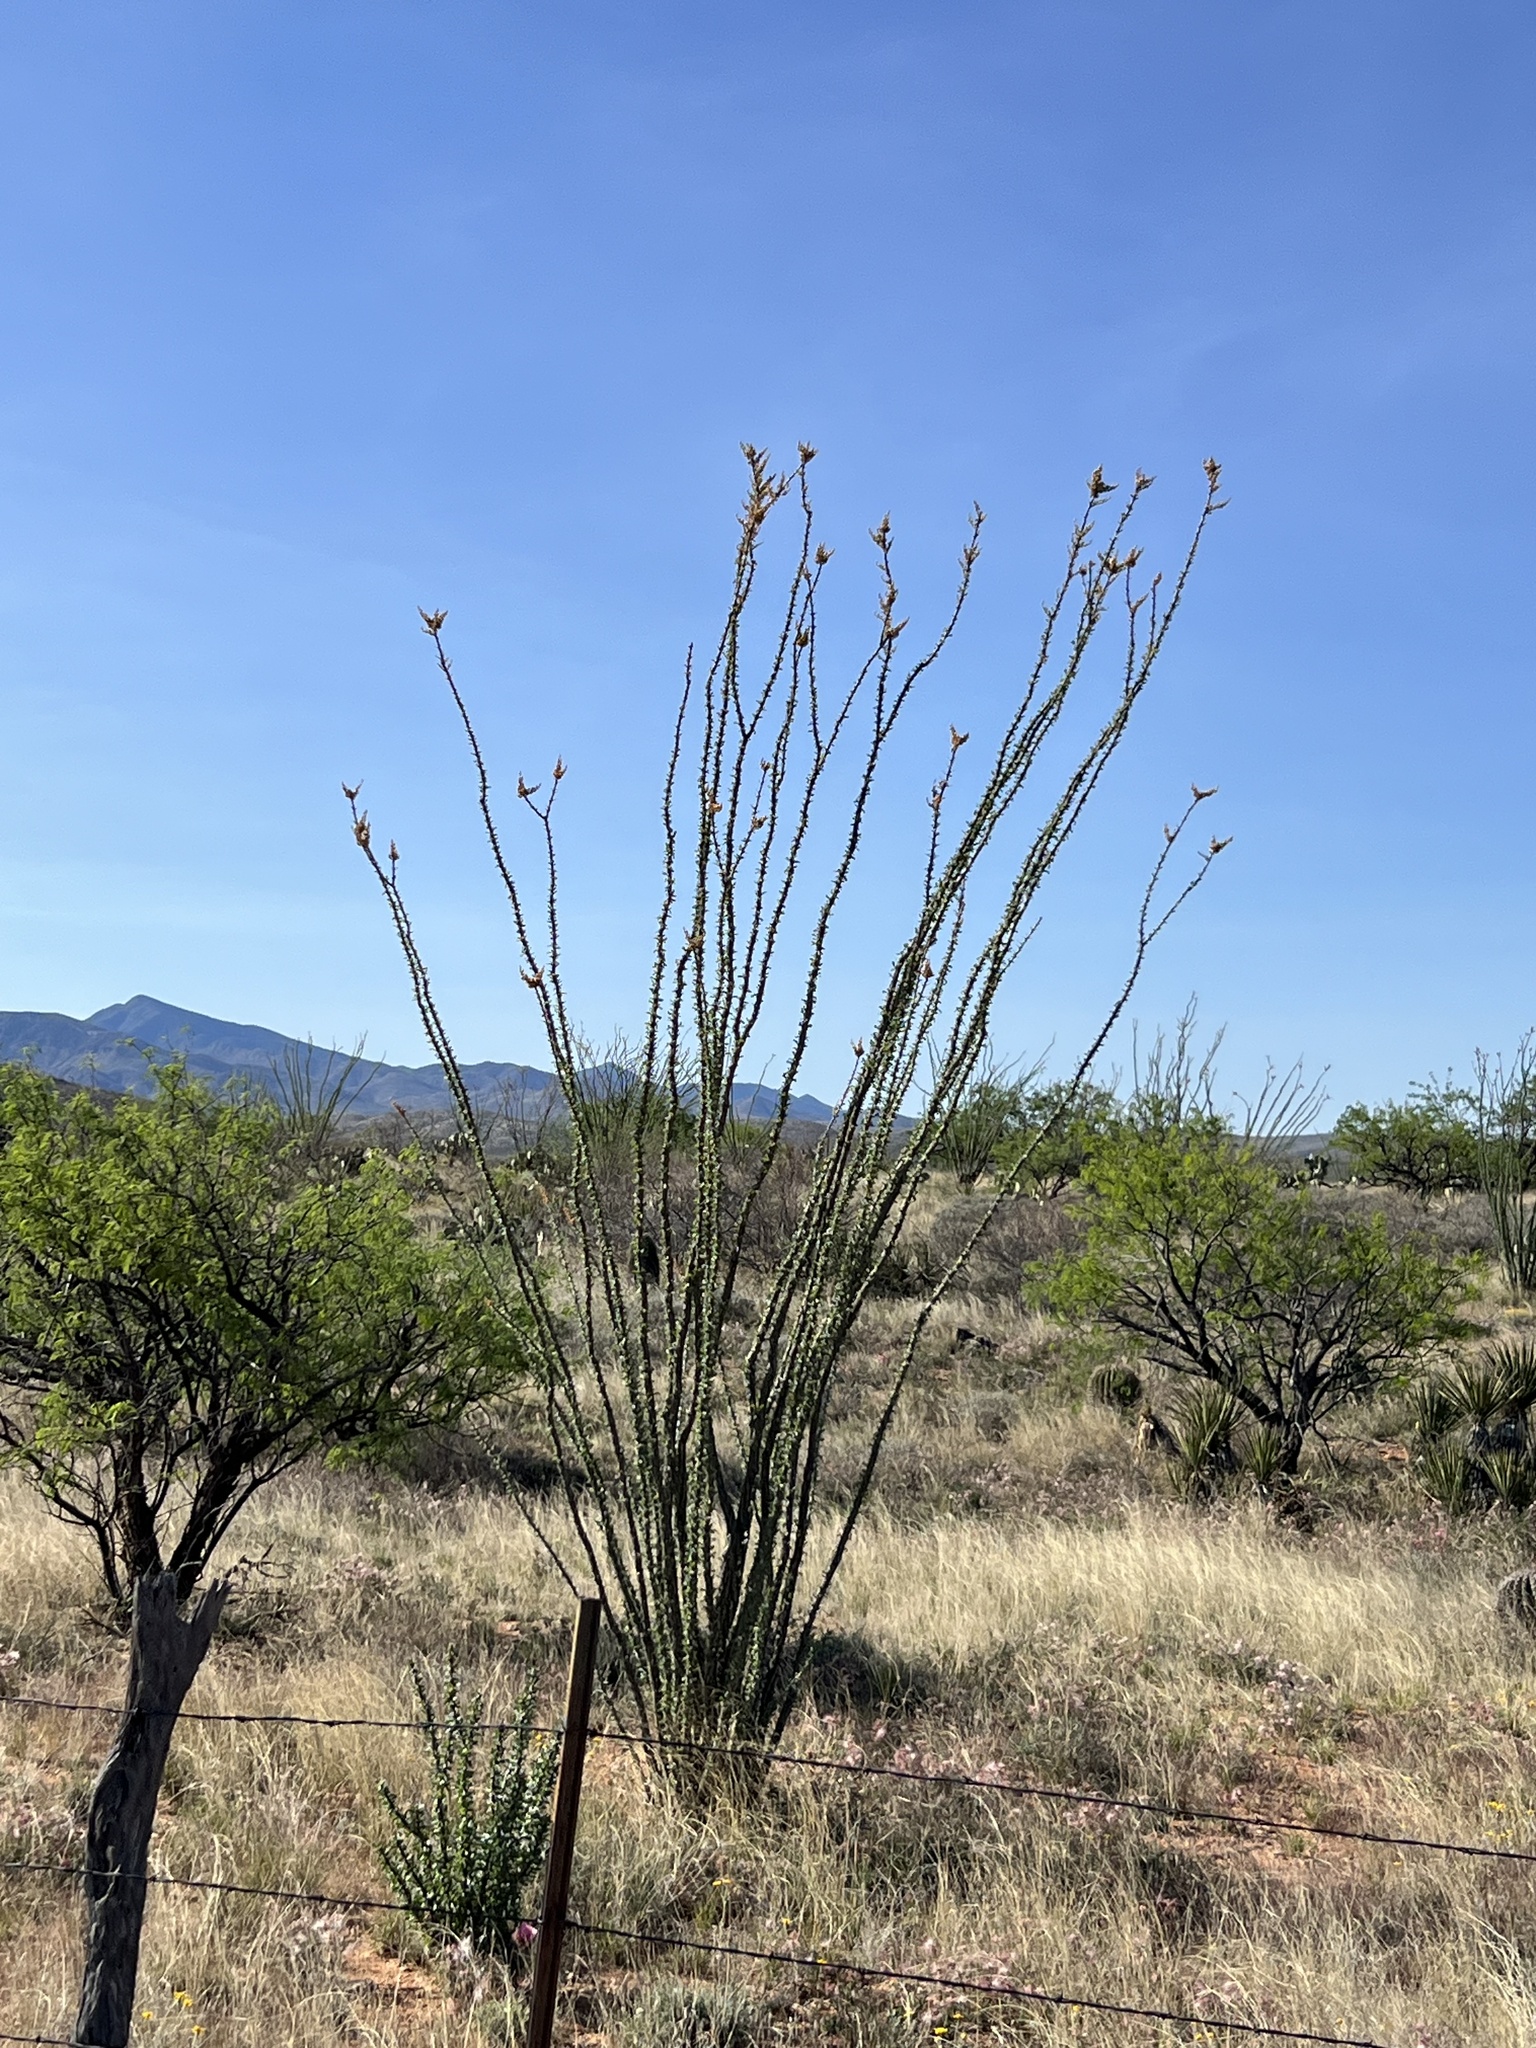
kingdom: Plantae
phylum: Tracheophyta
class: Magnoliopsida
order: Ericales
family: Fouquieriaceae
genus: Fouquieria
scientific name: Fouquieria splendens
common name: Vine-cactus
